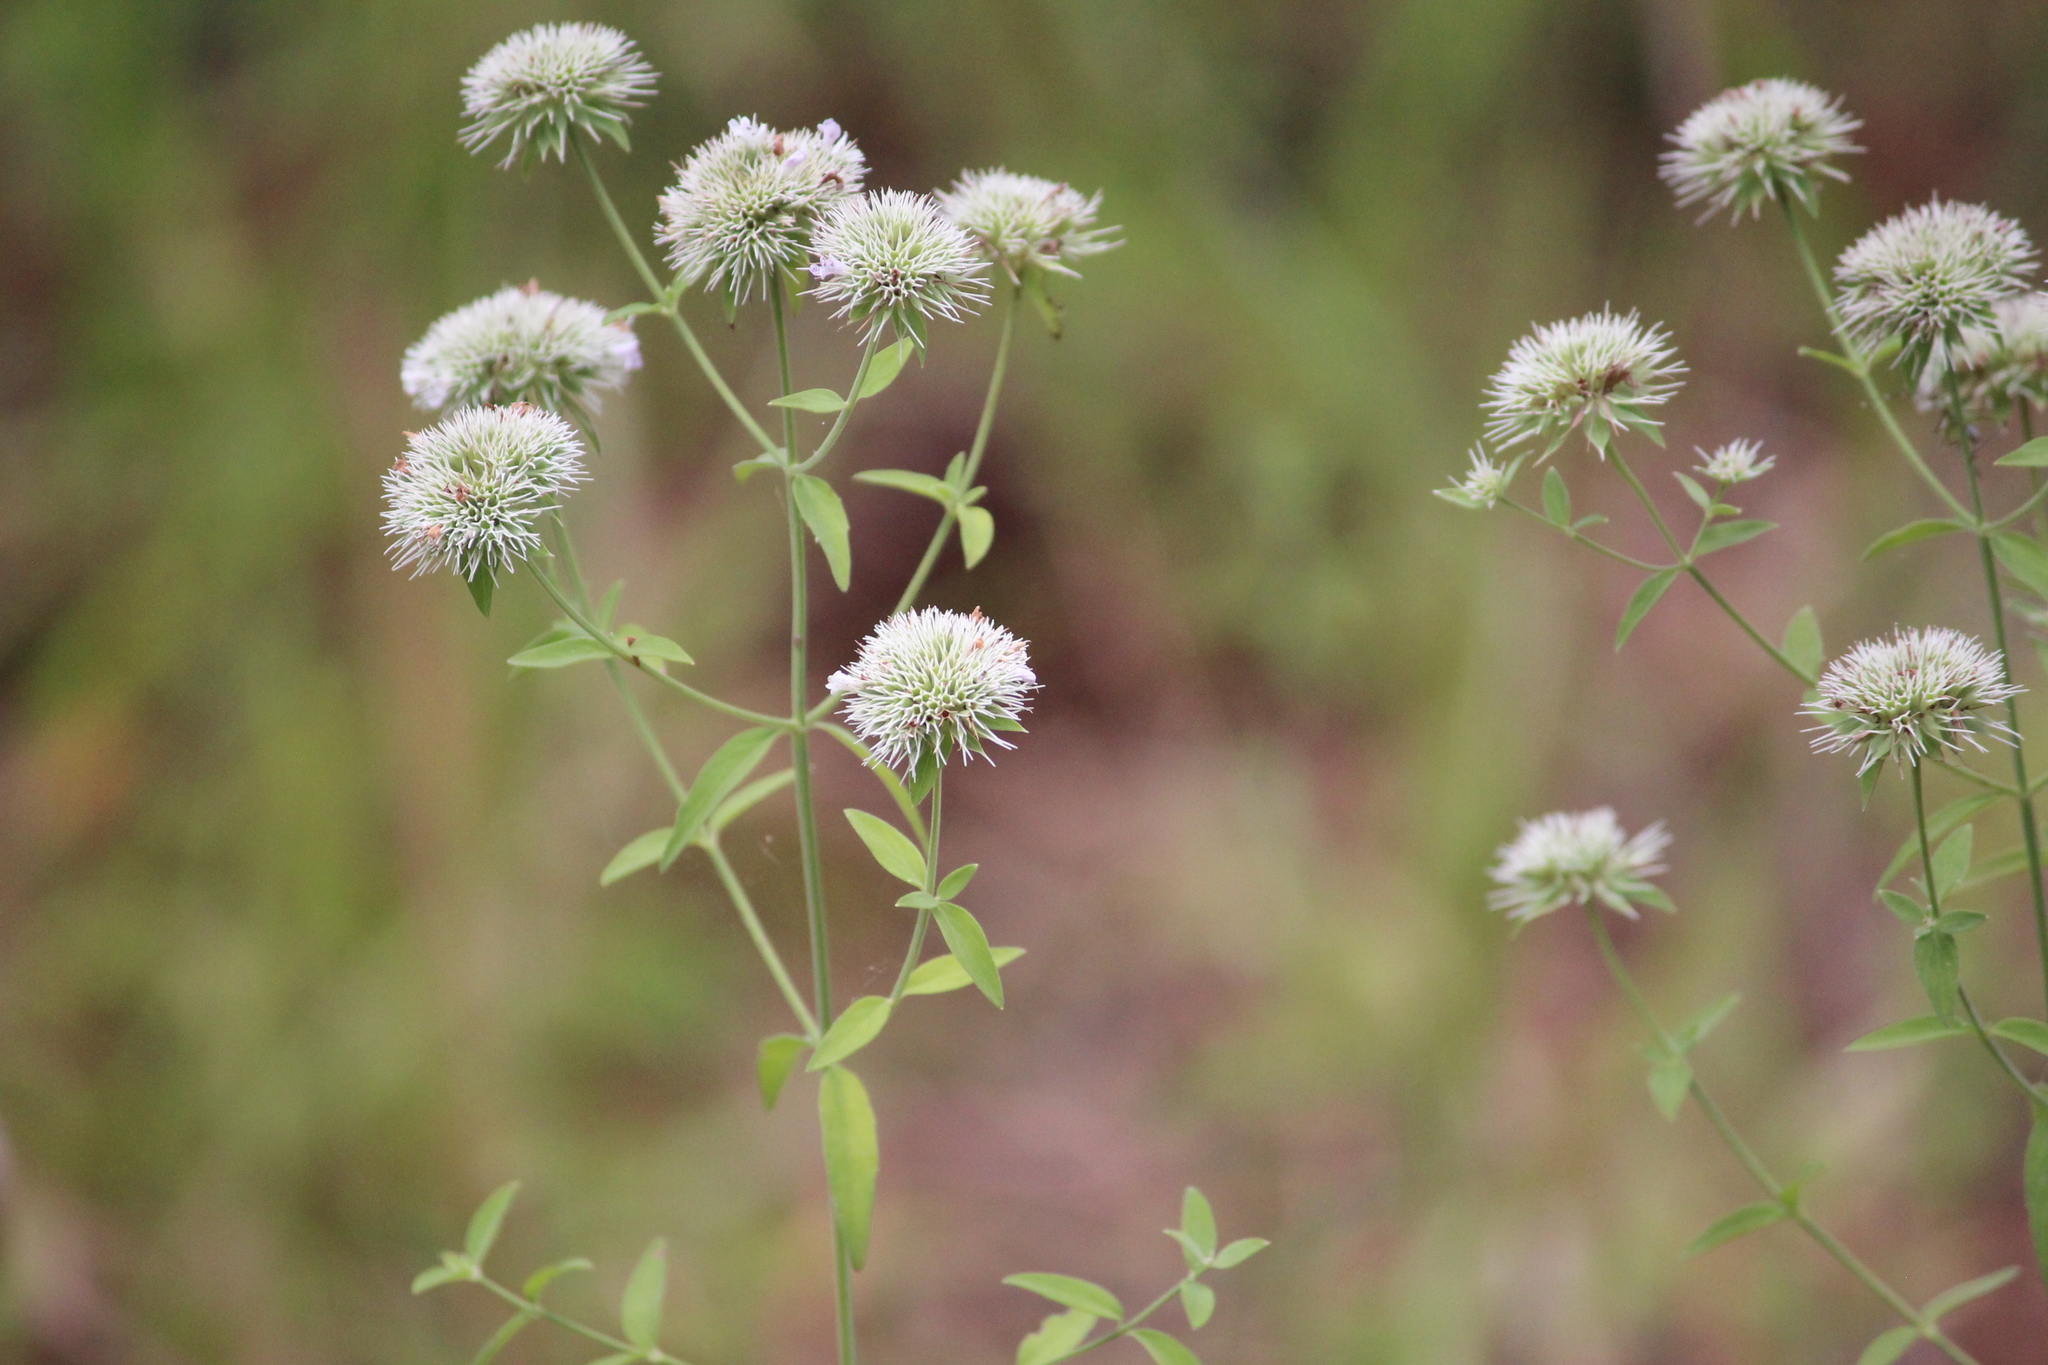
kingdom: Plantae
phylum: Tracheophyta
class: Magnoliopsida
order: Lamiales
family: Lamiaceae
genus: Pycnanthemum
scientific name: Pycnanthemum flexuosum
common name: Appalachian mountain-mint
